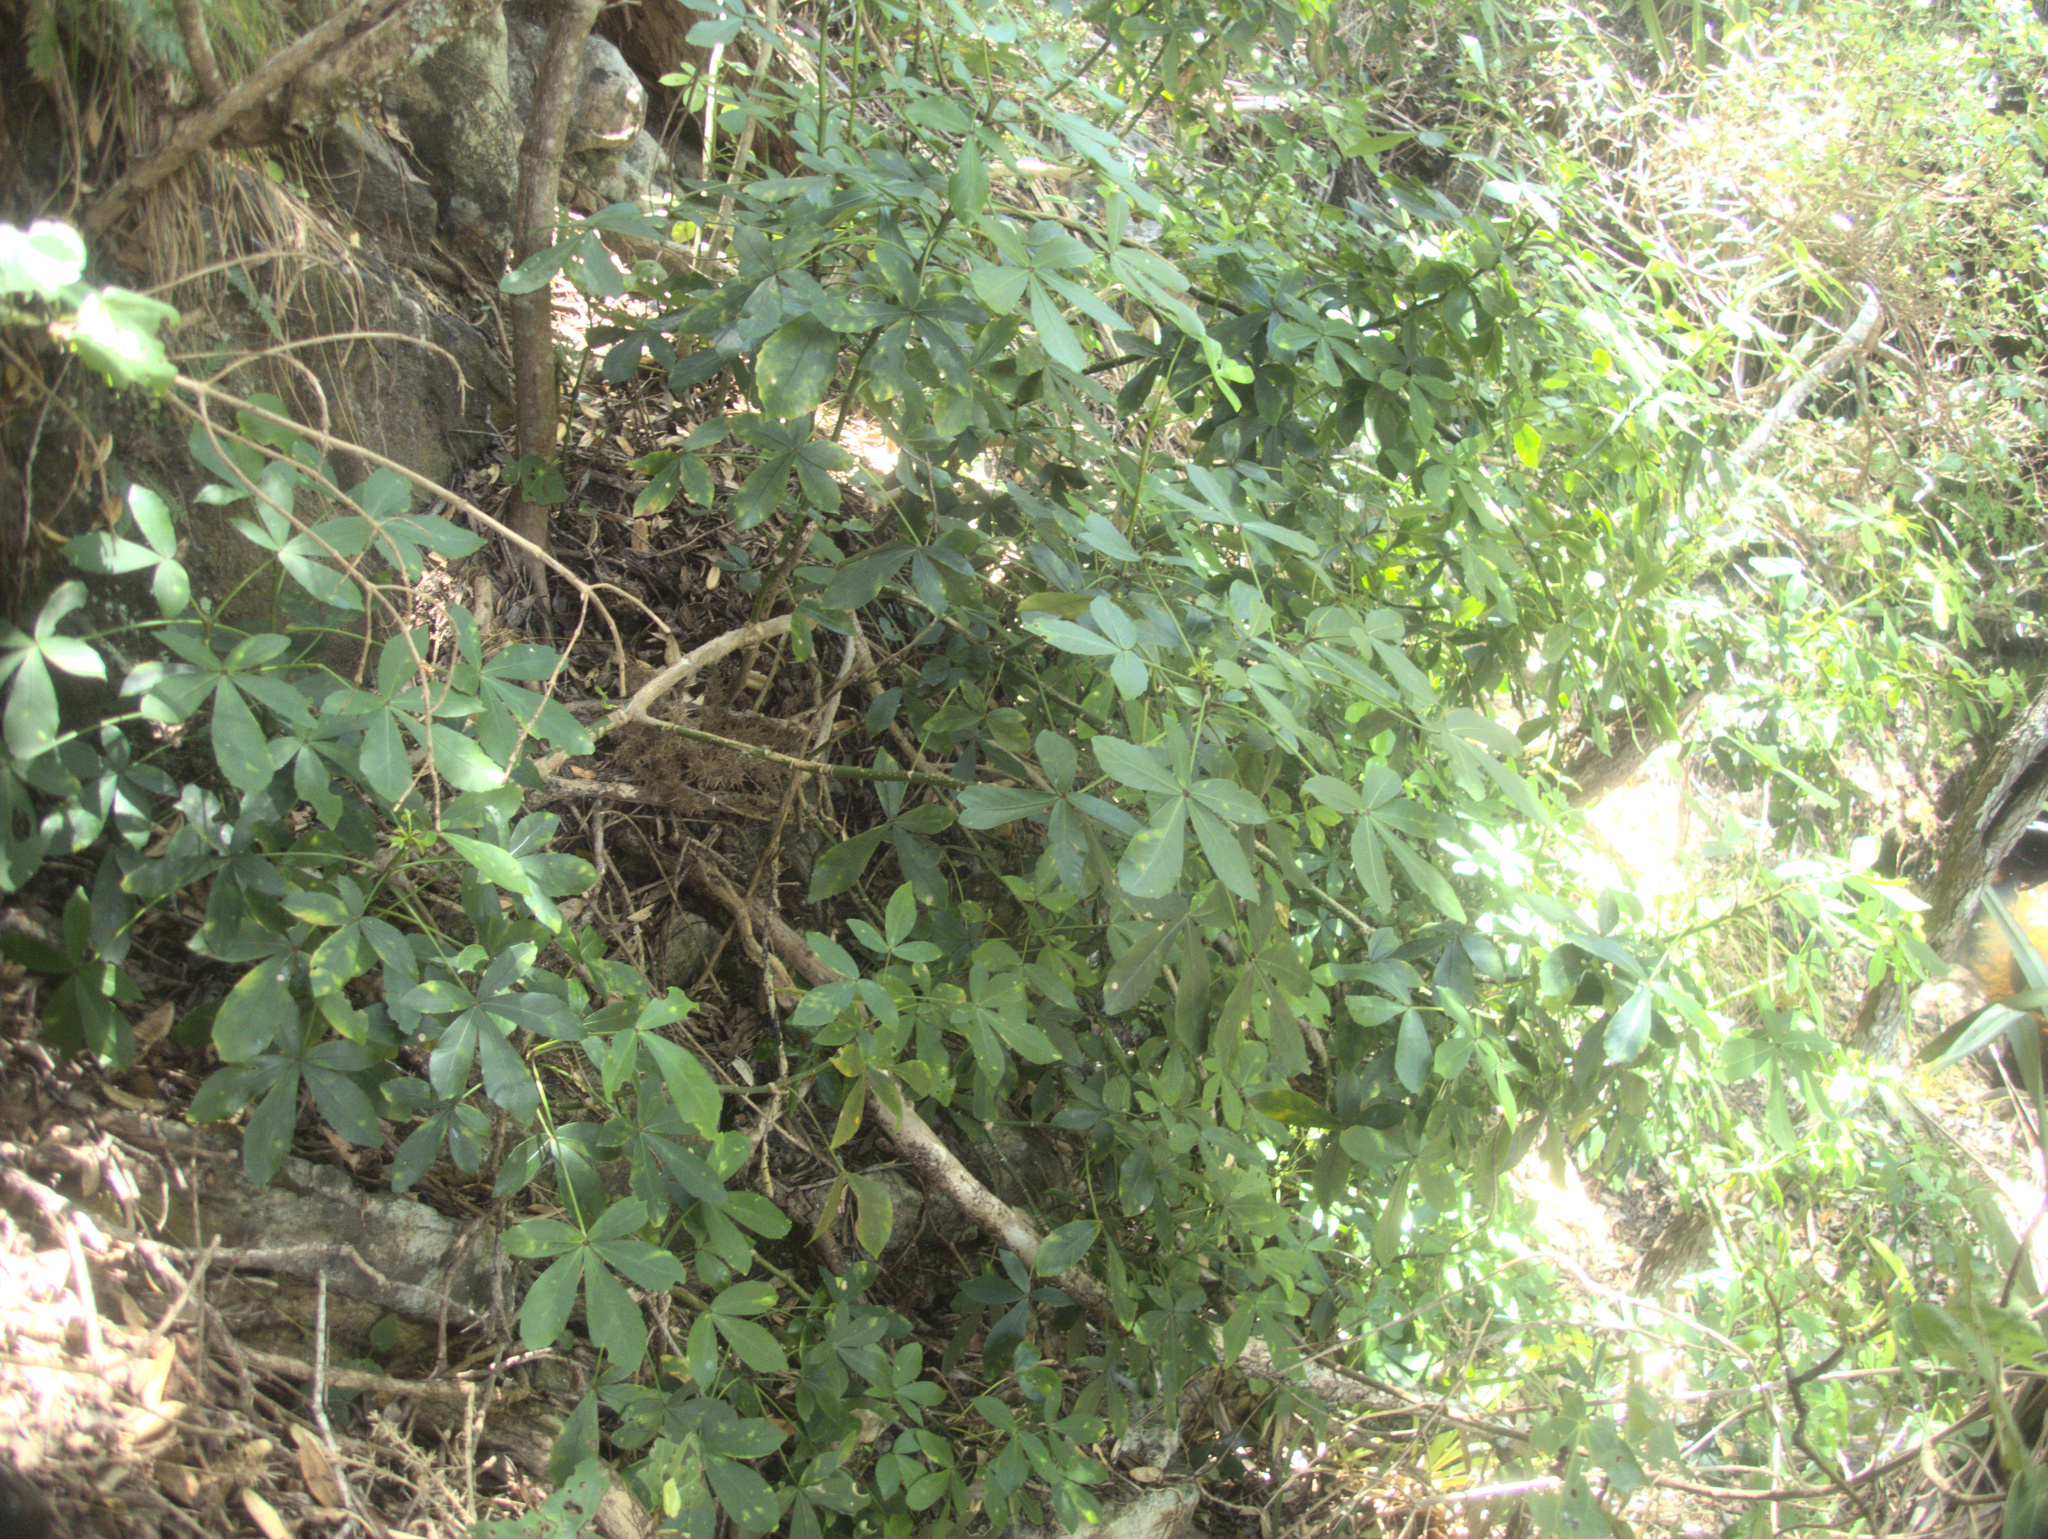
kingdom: Plantae
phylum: Tracheophyta
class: Magnoliopsida
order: Apiales
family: Araliaceae
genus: Pseudopanax
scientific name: Pseudopanax lessonii
